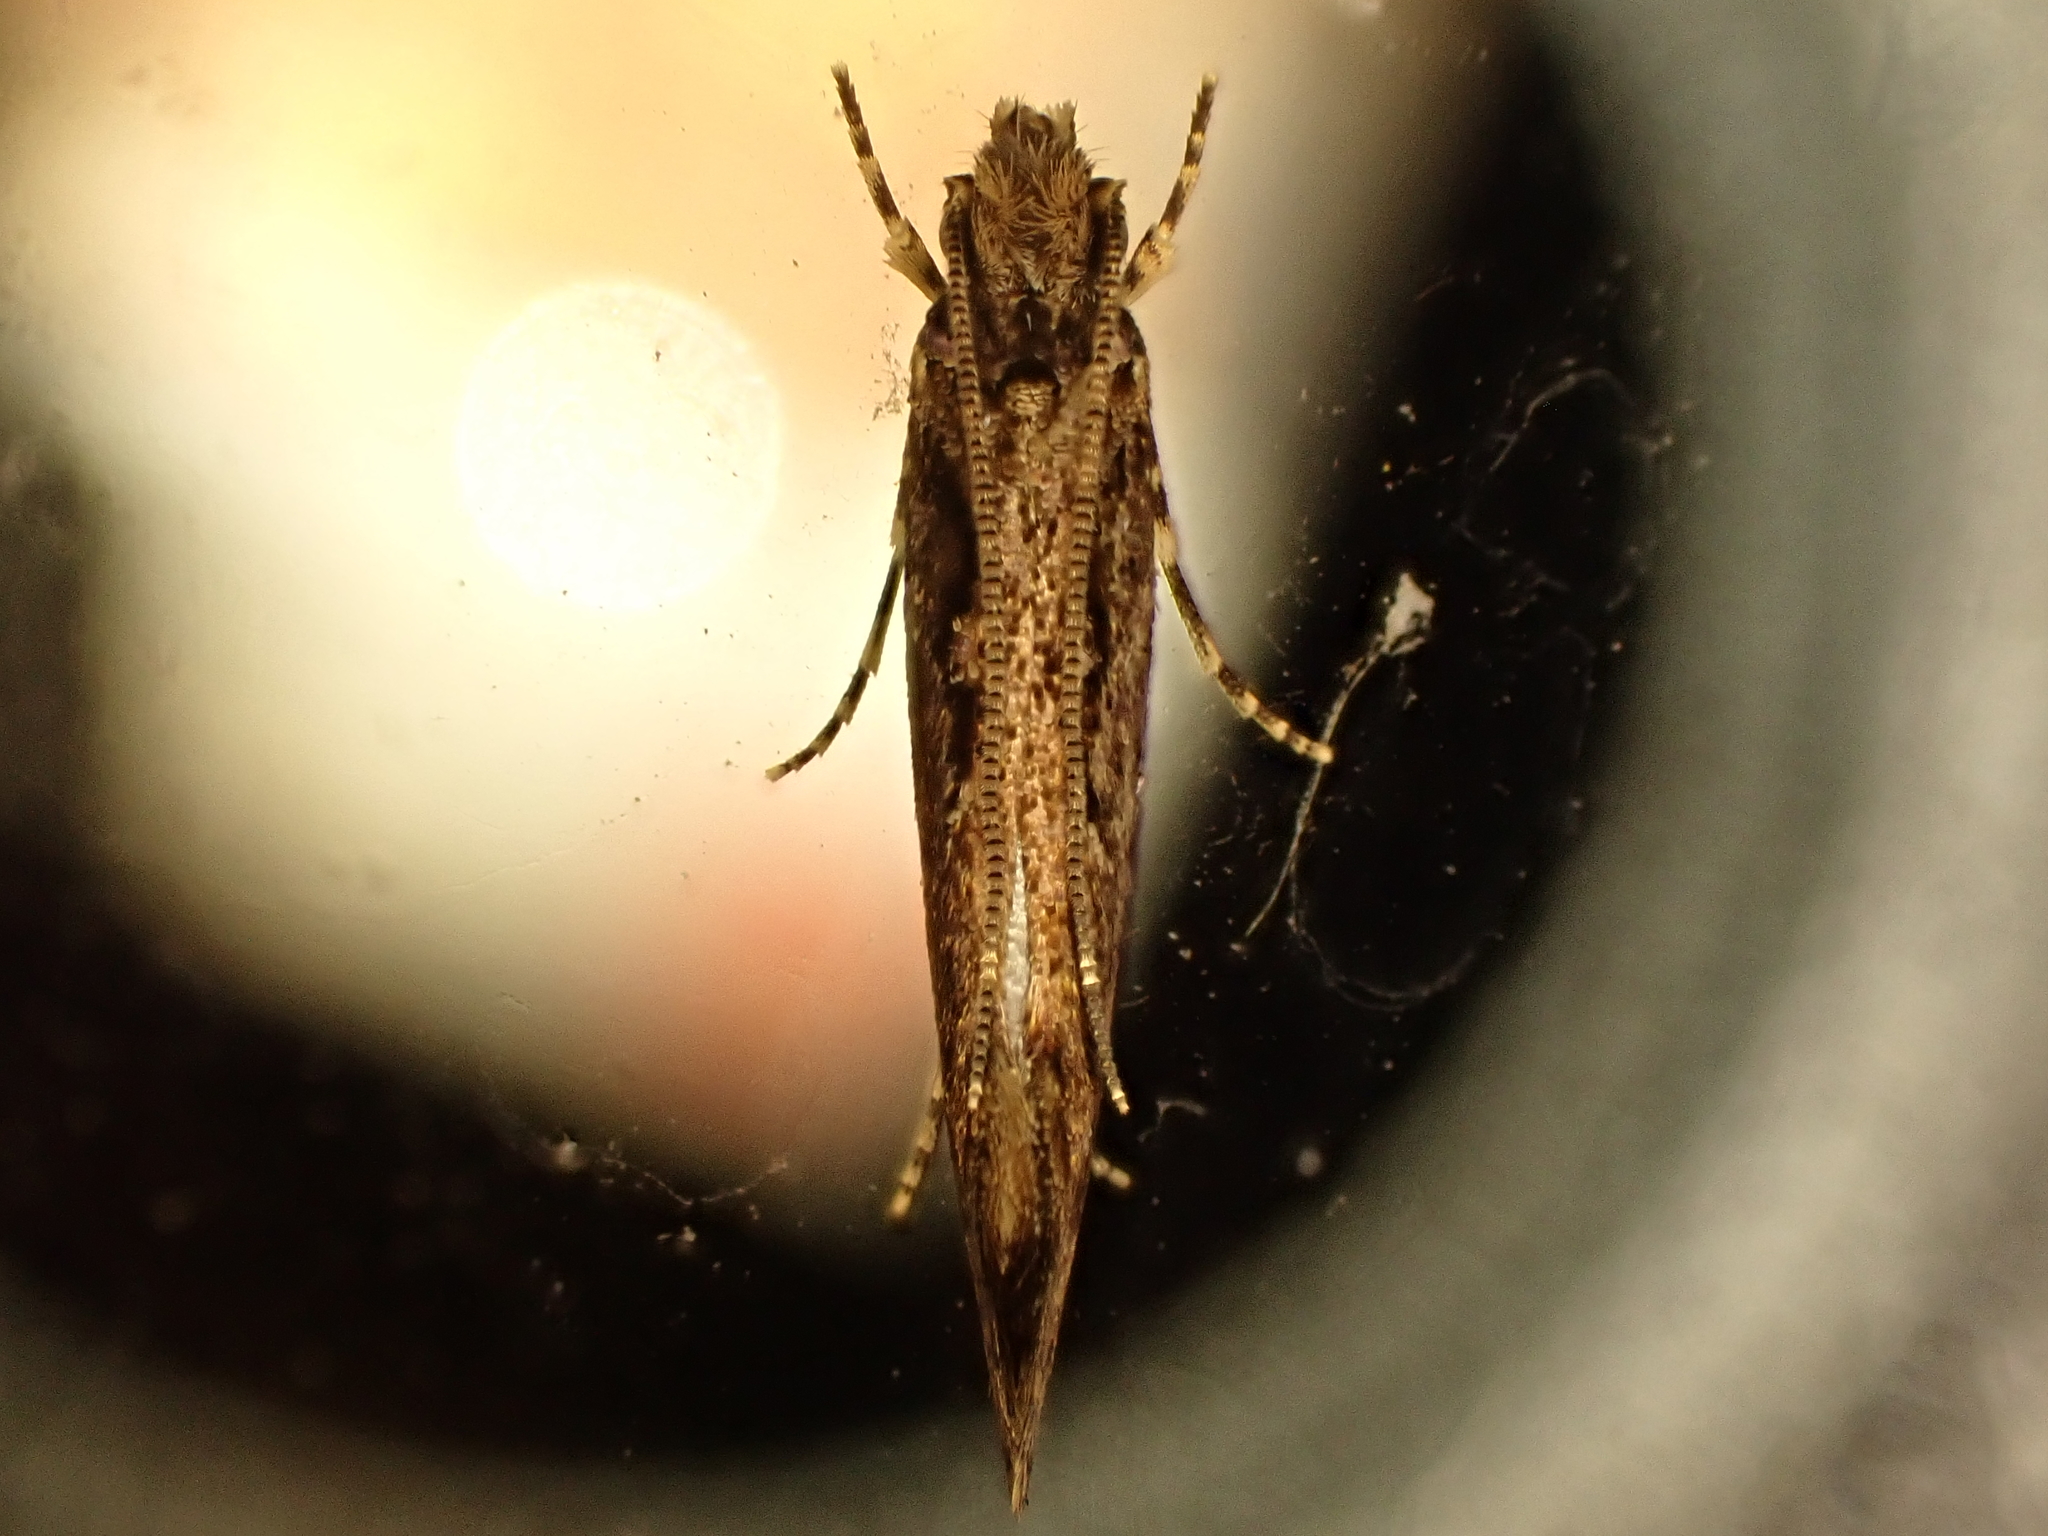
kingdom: Animalia
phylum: Arthropoda
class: Insecta
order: Lepidoptera
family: Tineidae
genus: Erechthias
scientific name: Erechthias capnitis
